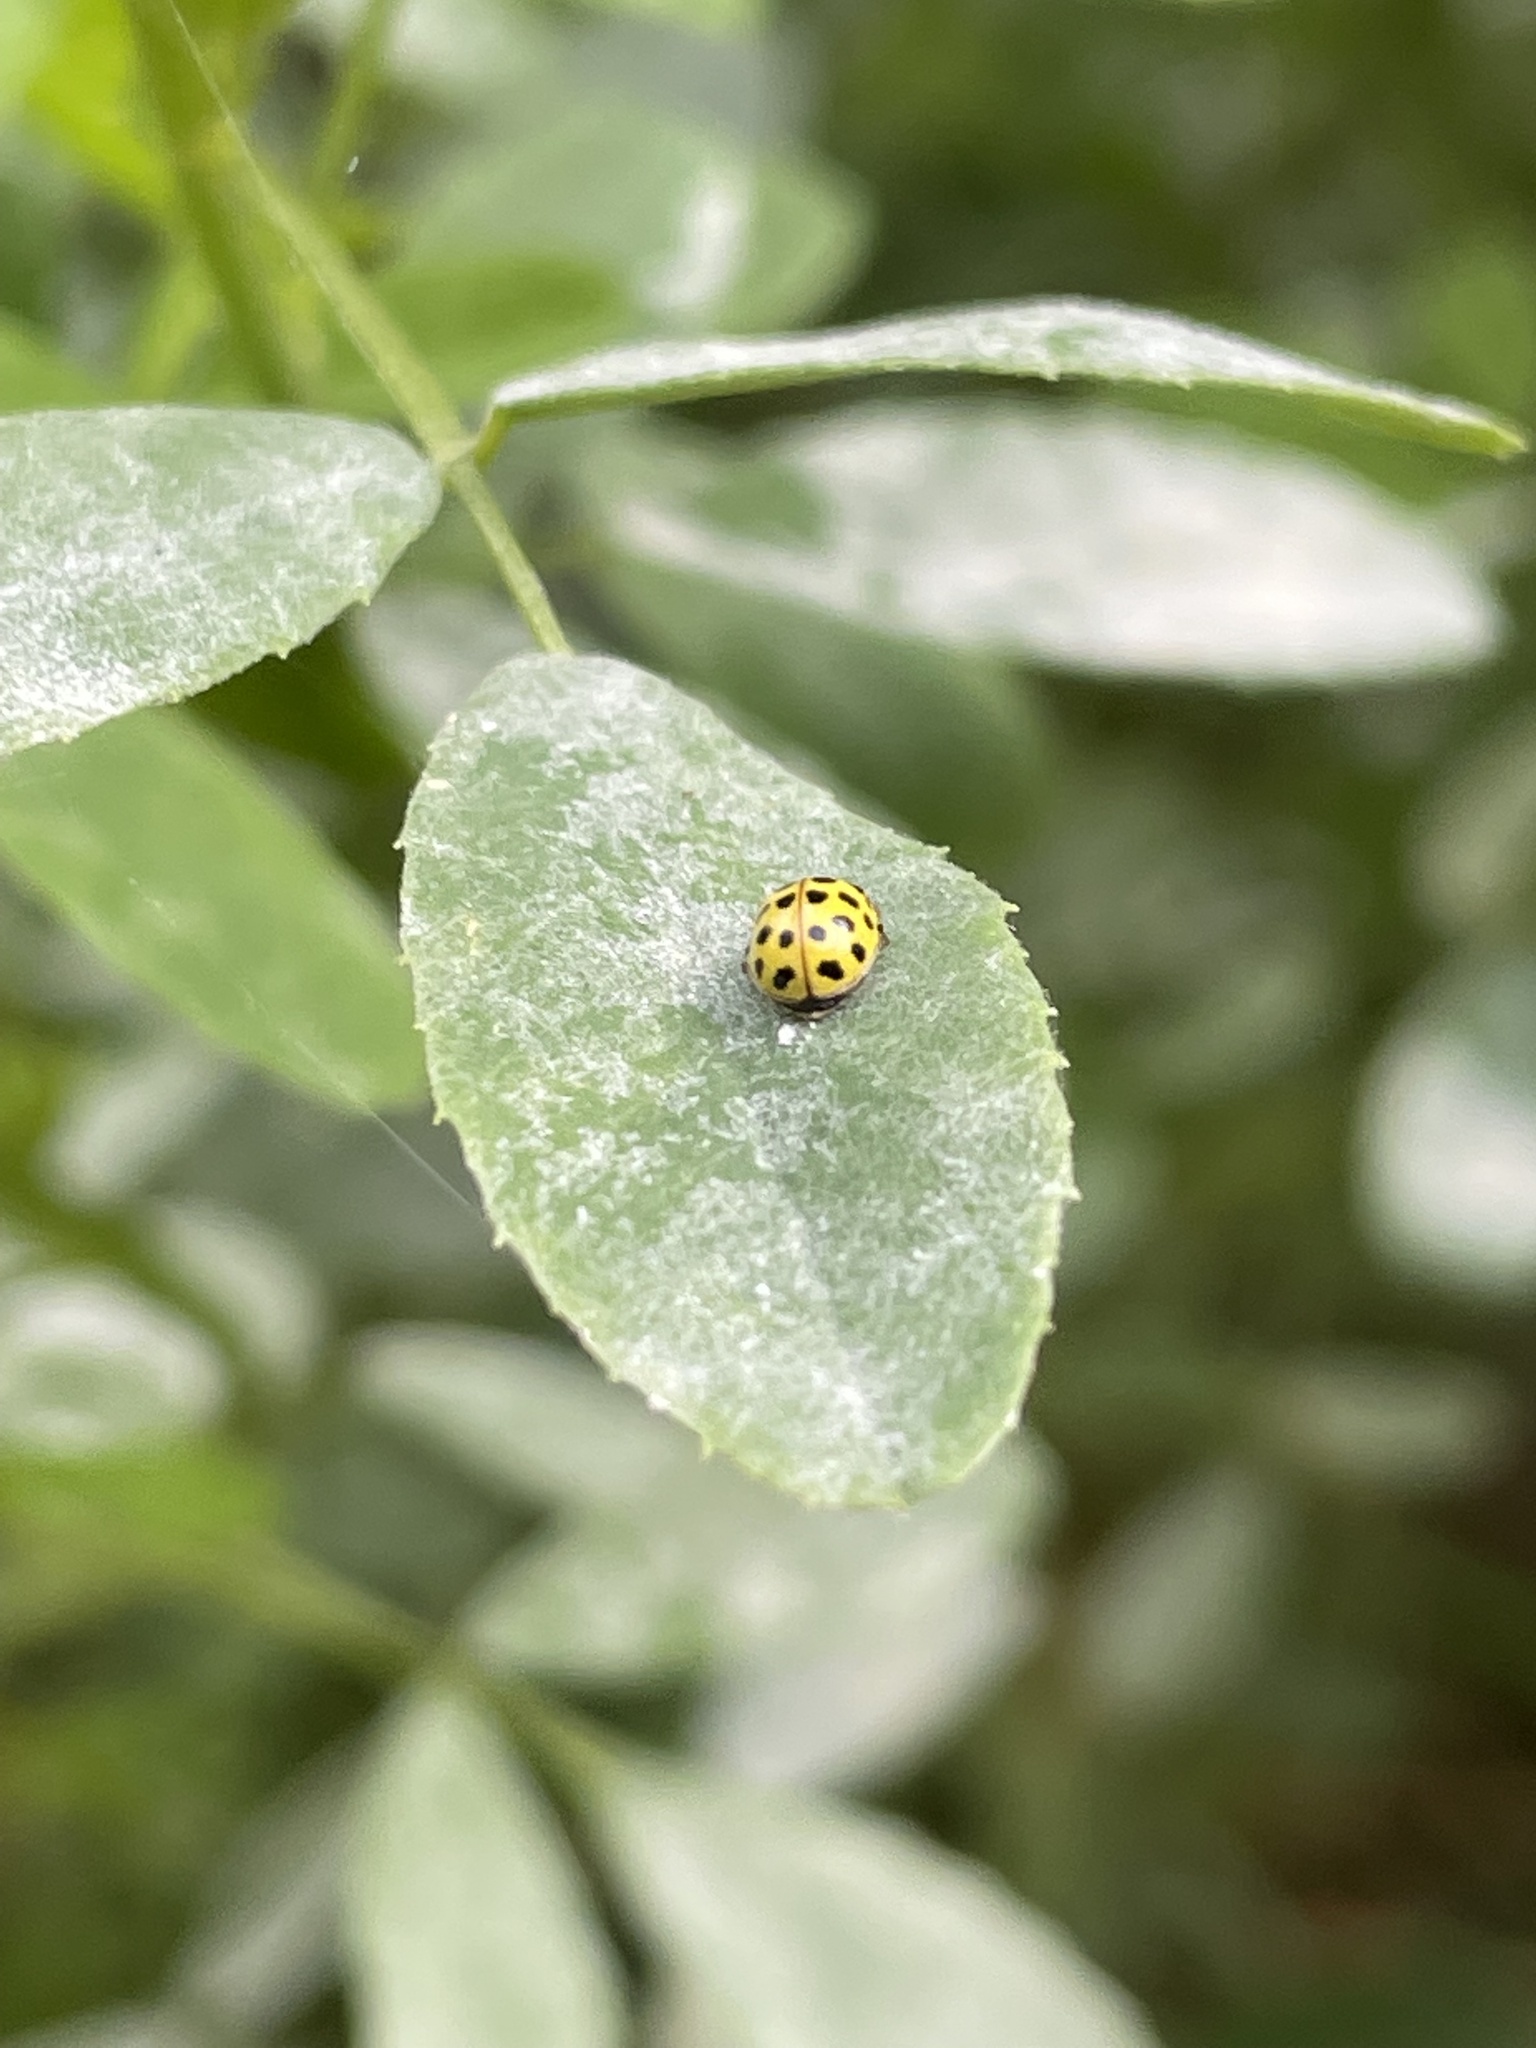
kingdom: Animalia
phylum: Arthropoda
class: Insecta
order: Coleoptera
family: Coccinellidae
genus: Psyllobora
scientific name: Psyllobora vigintiduopunctata
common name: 22-spot ladybird
